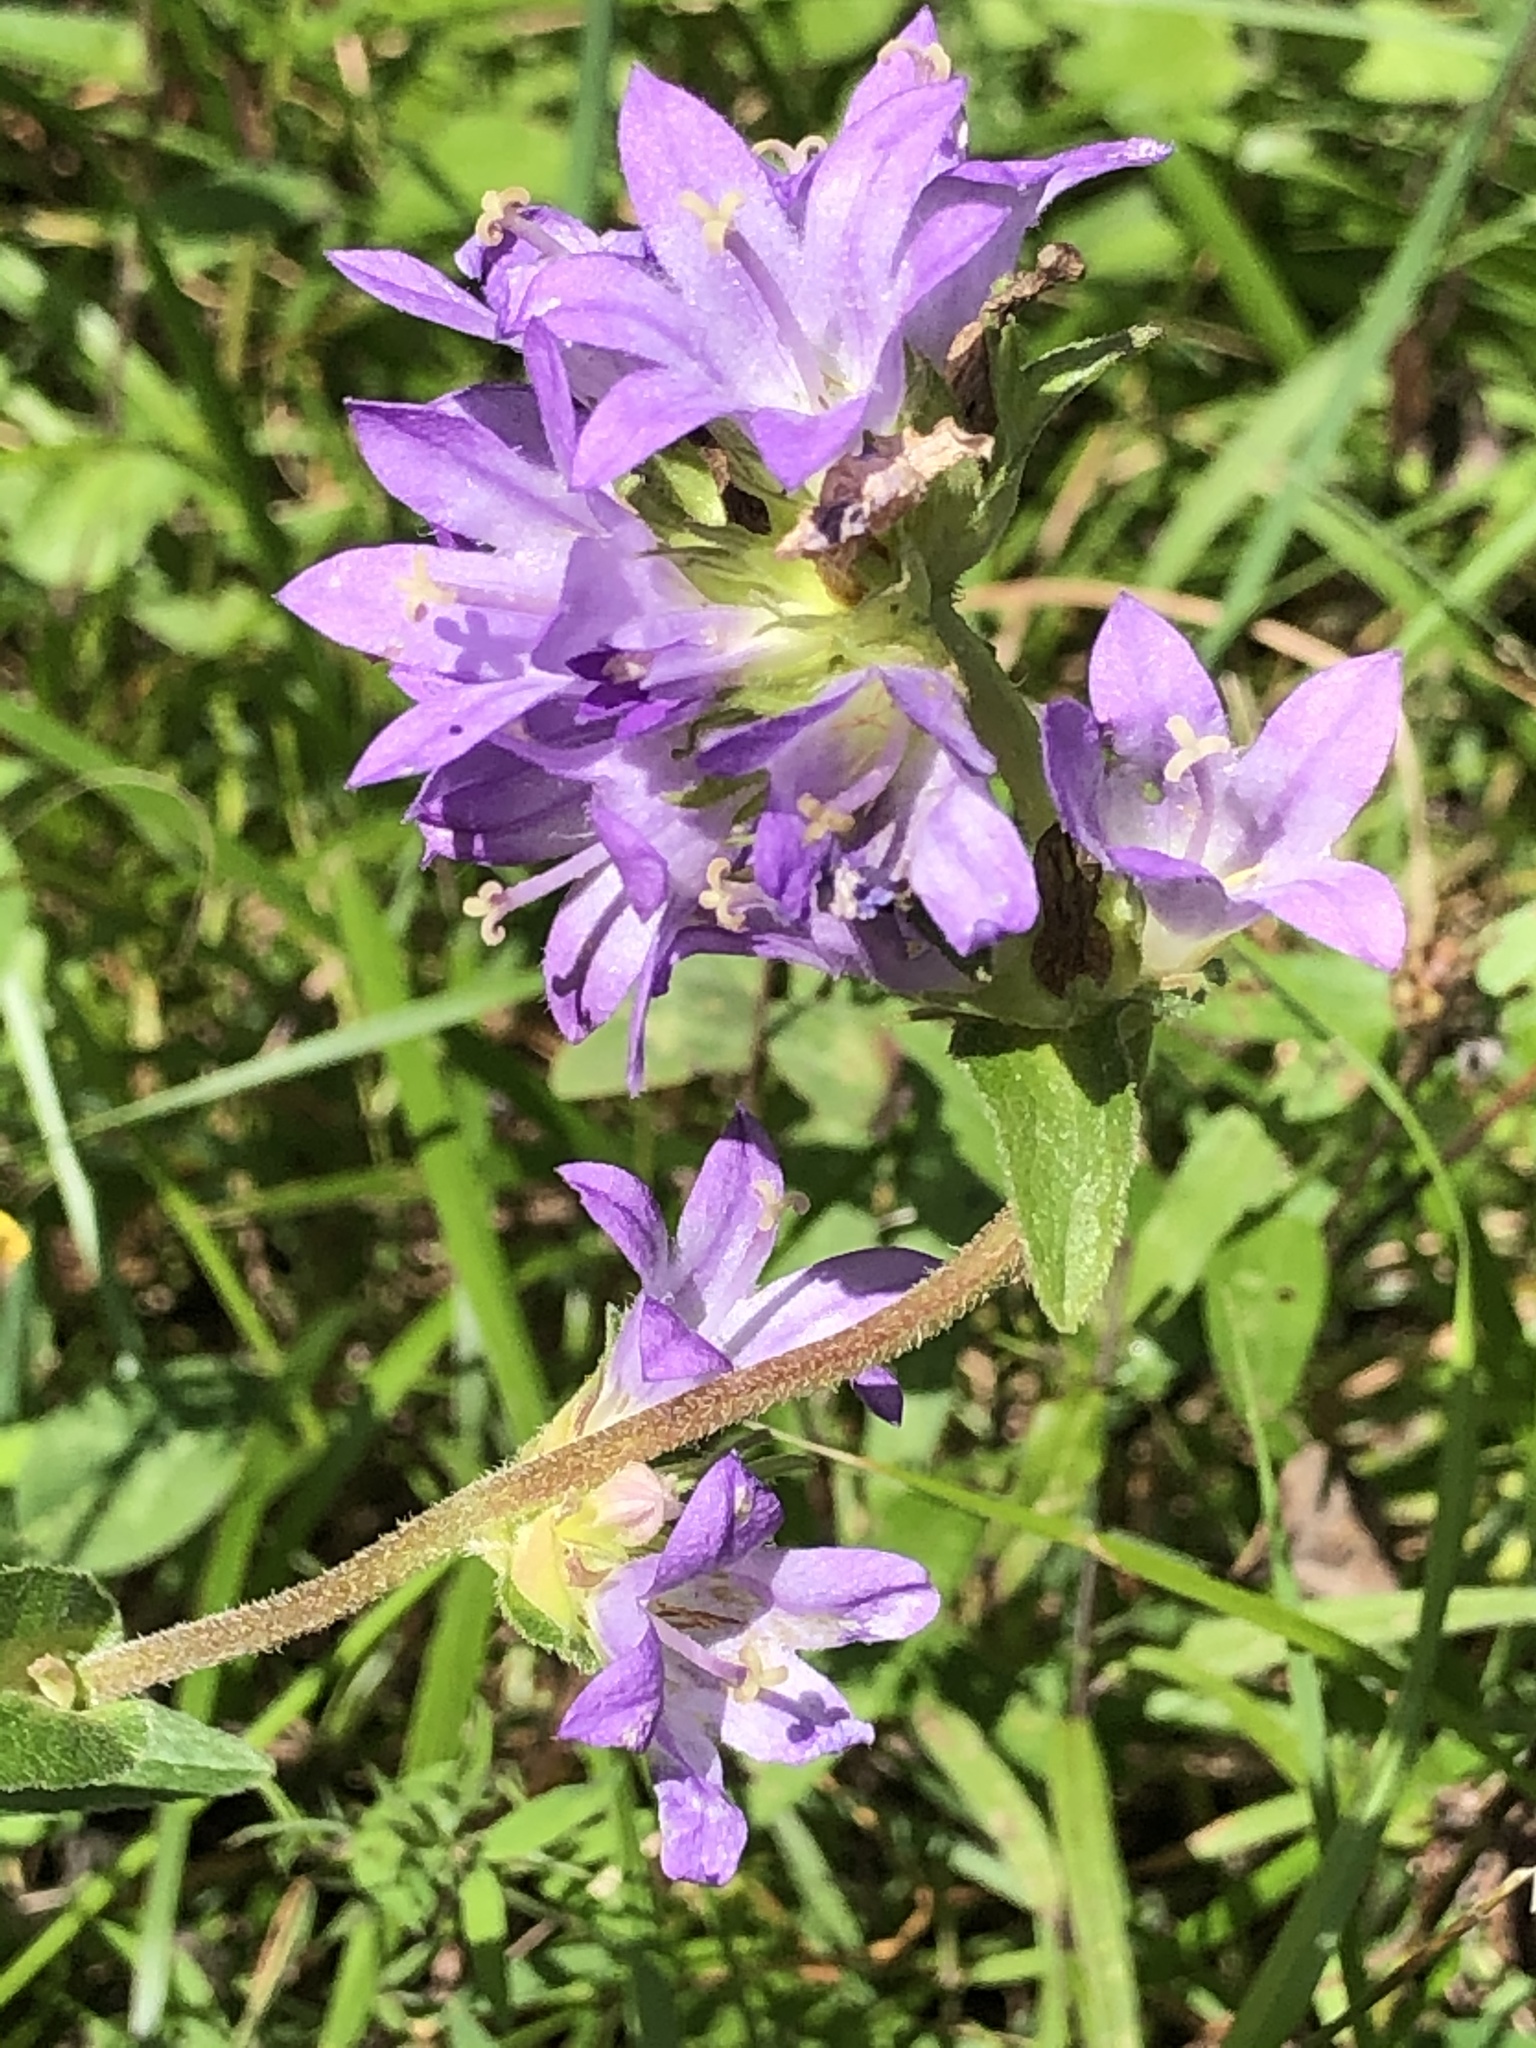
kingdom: Plantae
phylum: Tracheophyta
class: Magnoliopsida
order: Asterales
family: Campanulaceae
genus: Campanula
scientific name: Campanula glomerata
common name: Clustered bellflower
